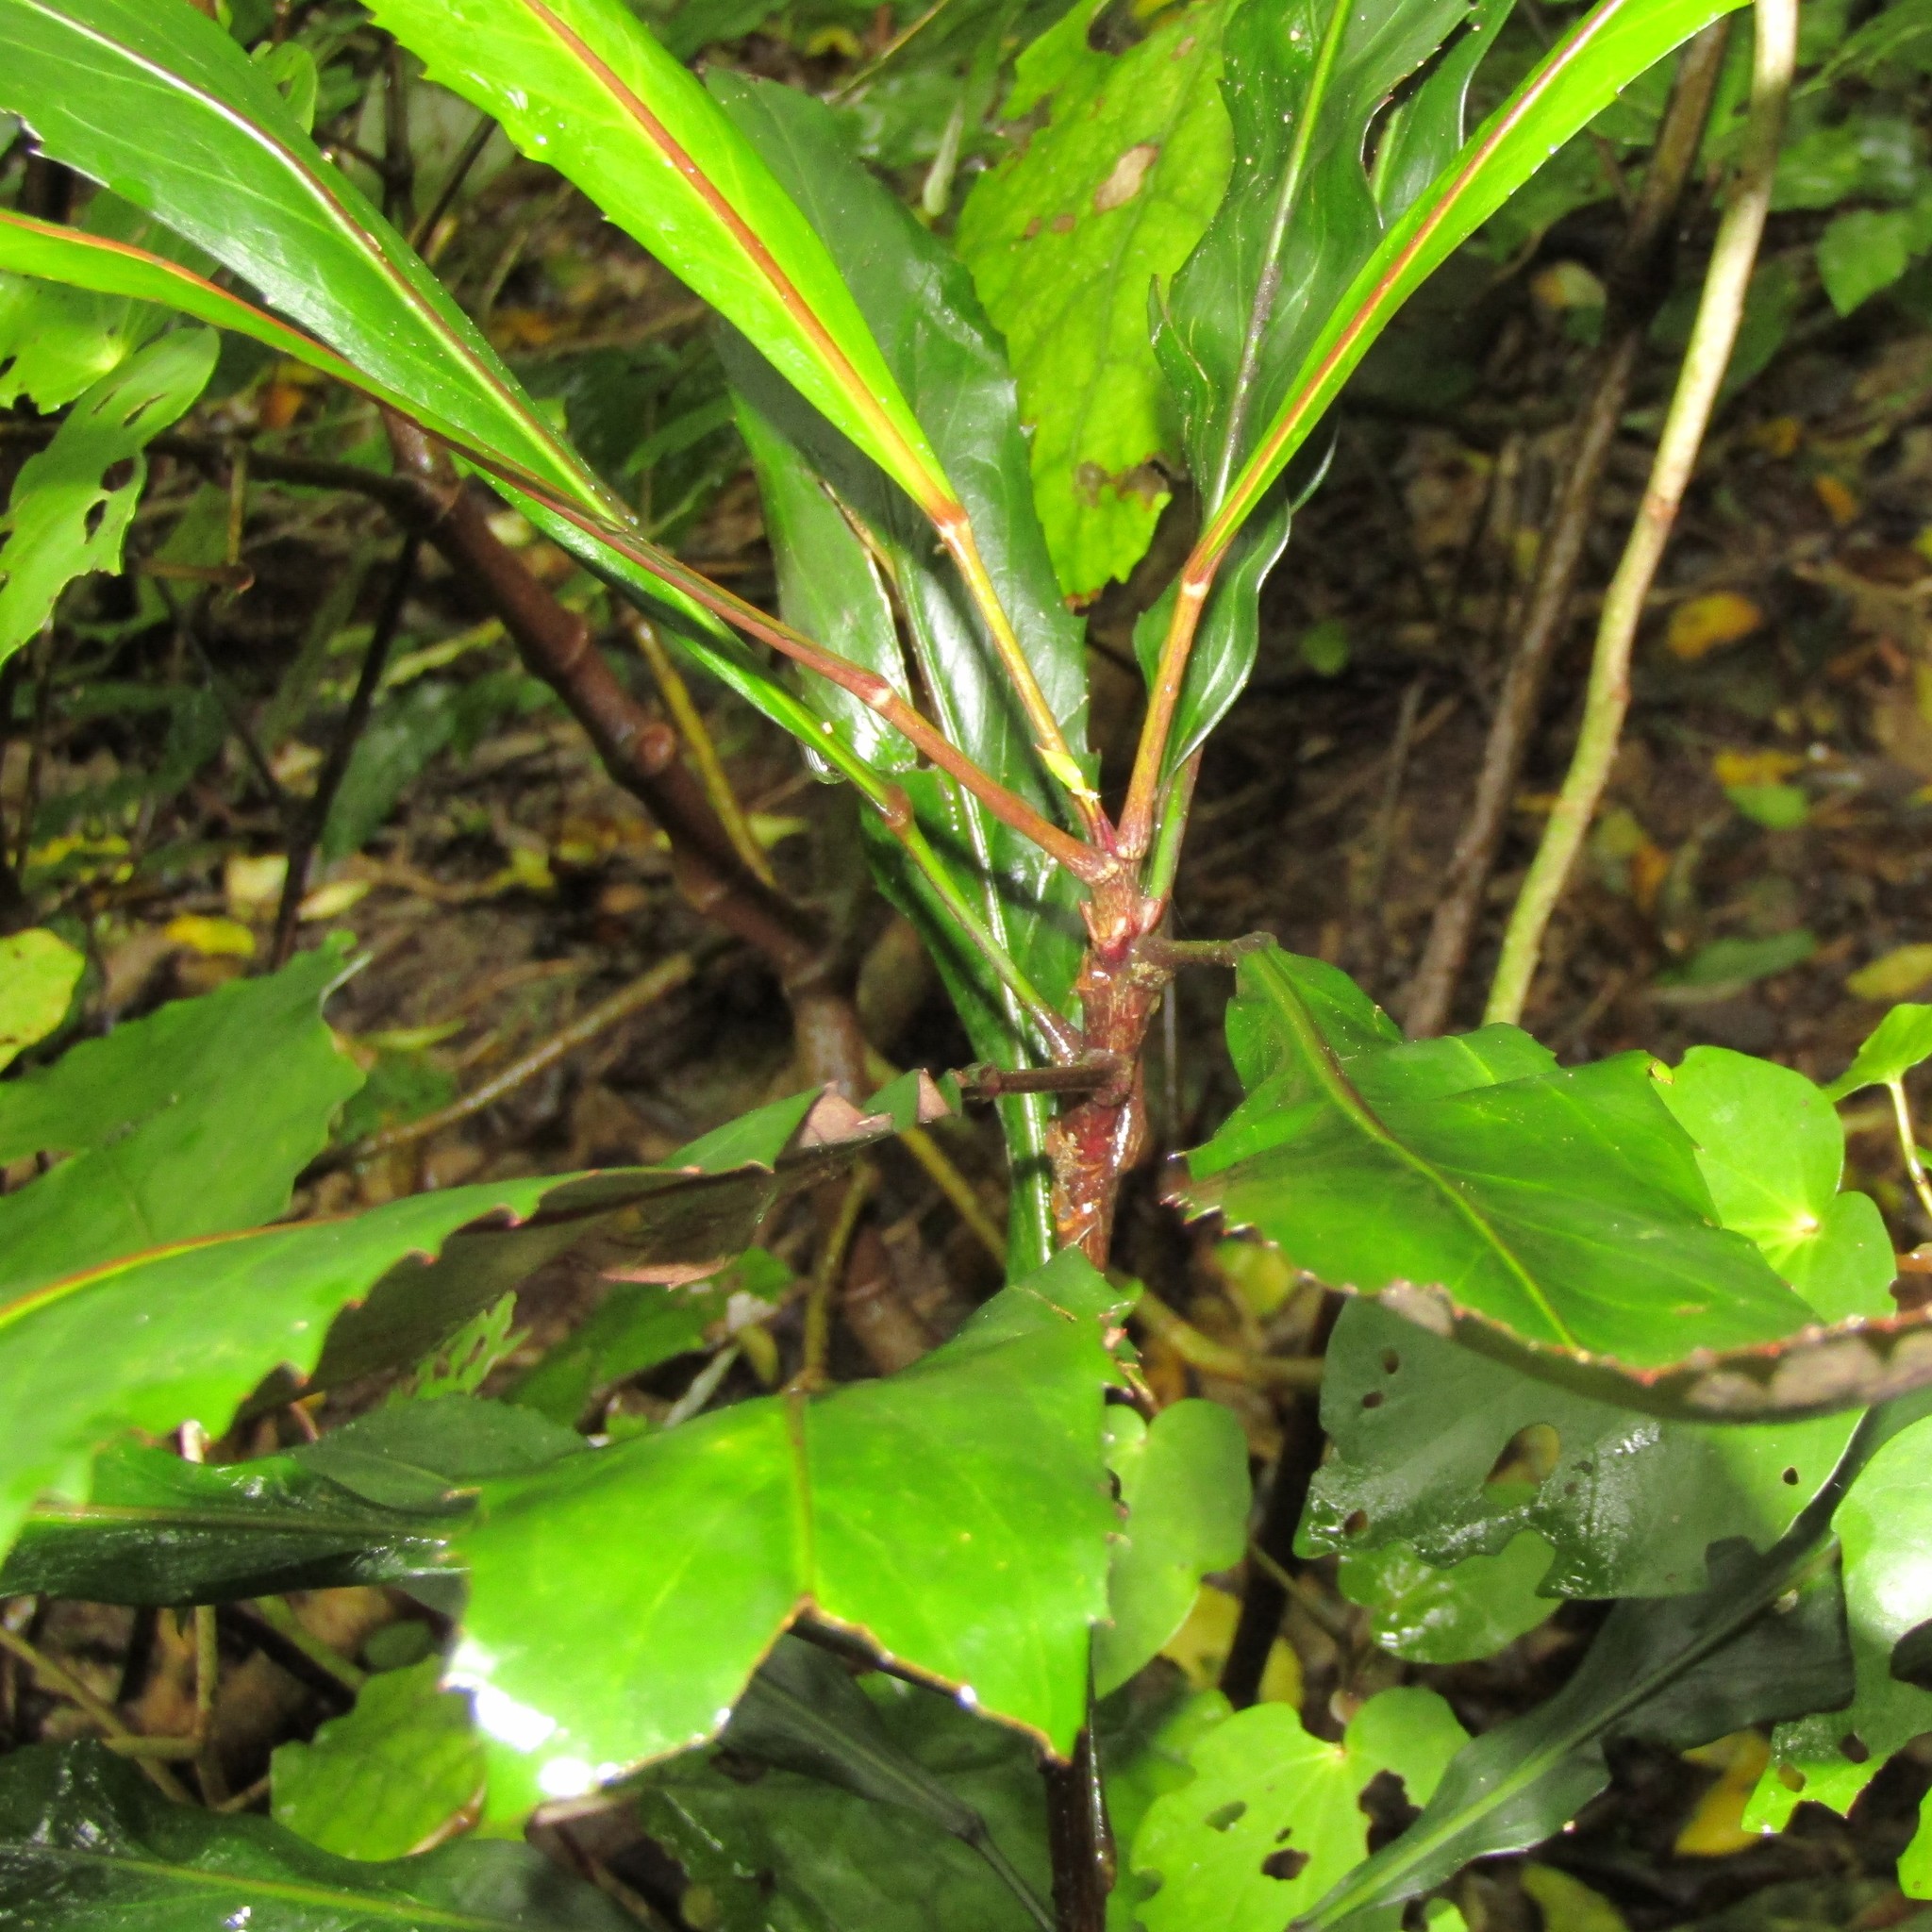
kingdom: Plantae
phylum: Tracheophyta
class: Magnoliopsida
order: Apiales
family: Araliaceae
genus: Pseudopanax
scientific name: Pseudopanax
